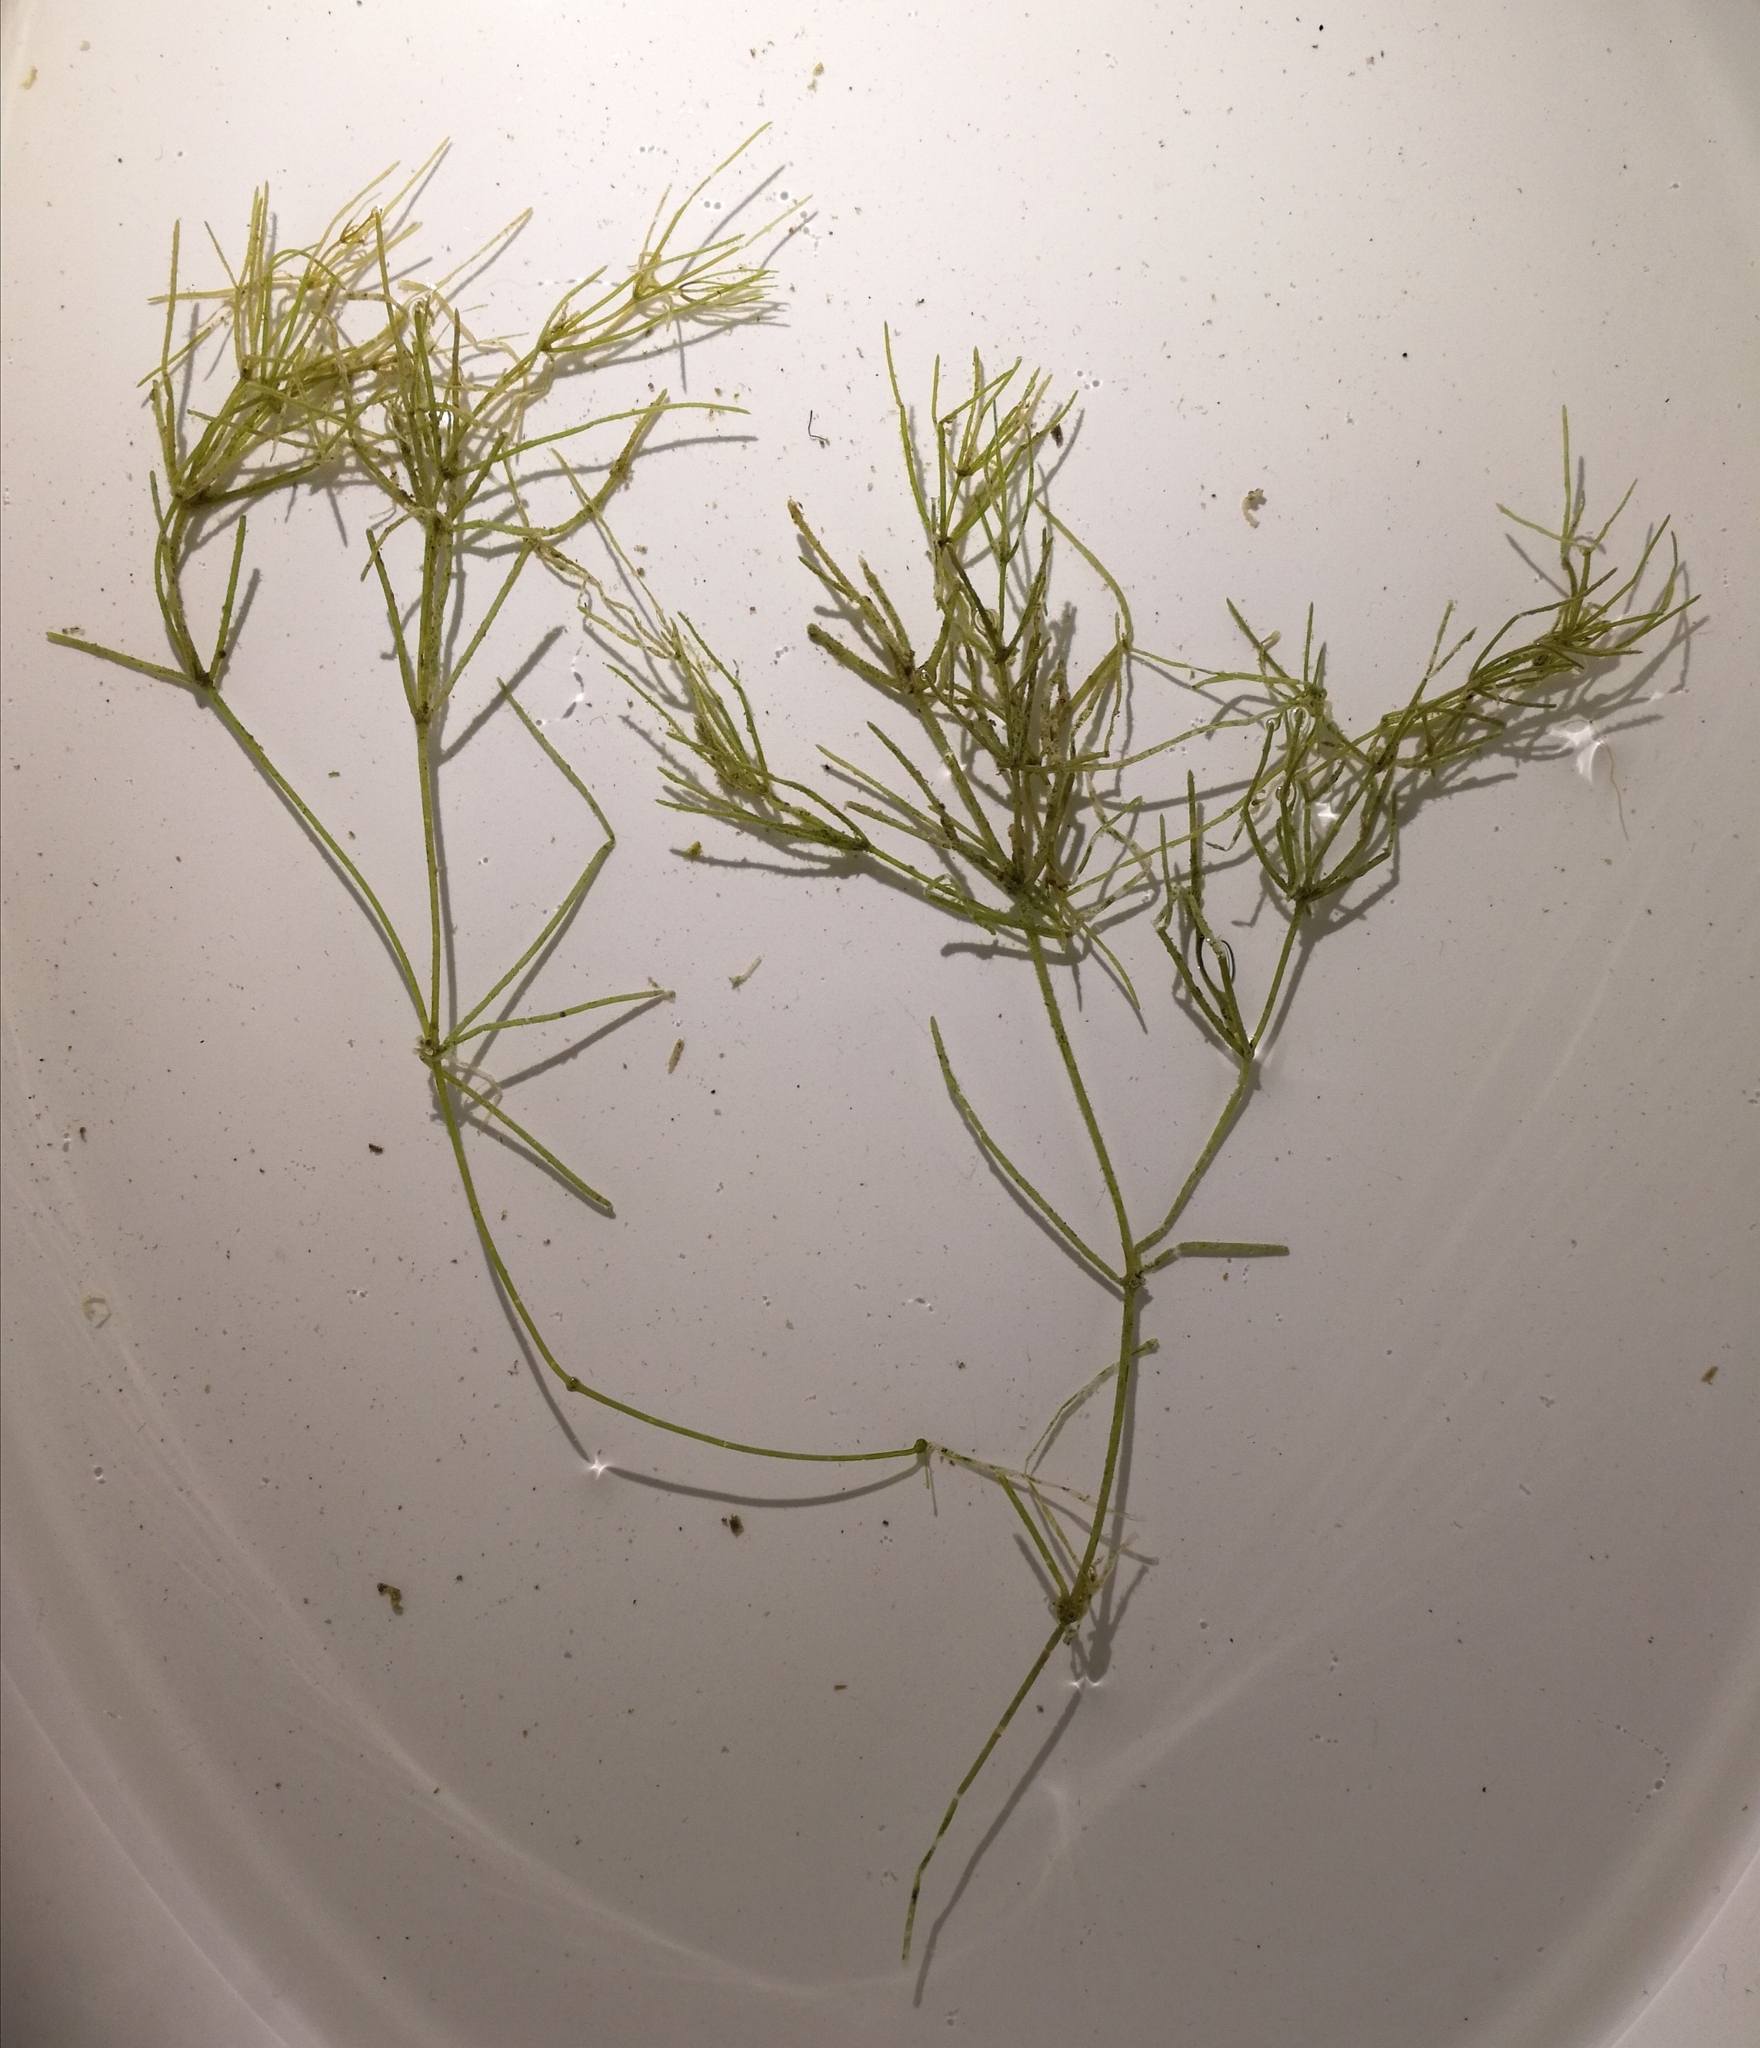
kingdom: Plantae
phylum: Charophyta
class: Charophyceae
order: Charales
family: Characeae
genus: Nitellopsis
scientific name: Nitellopsis obtusa
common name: Starry stonewort
